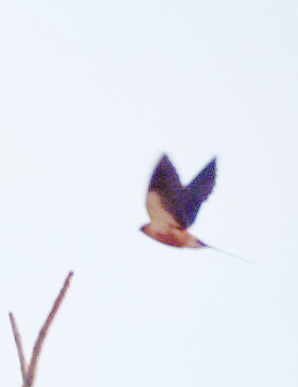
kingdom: Animalia
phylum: Chordata
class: Aves
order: Passeriformes
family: Hirundinidae
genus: Cecropis
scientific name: Cecropis semirufa
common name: Red-breasted swallow
